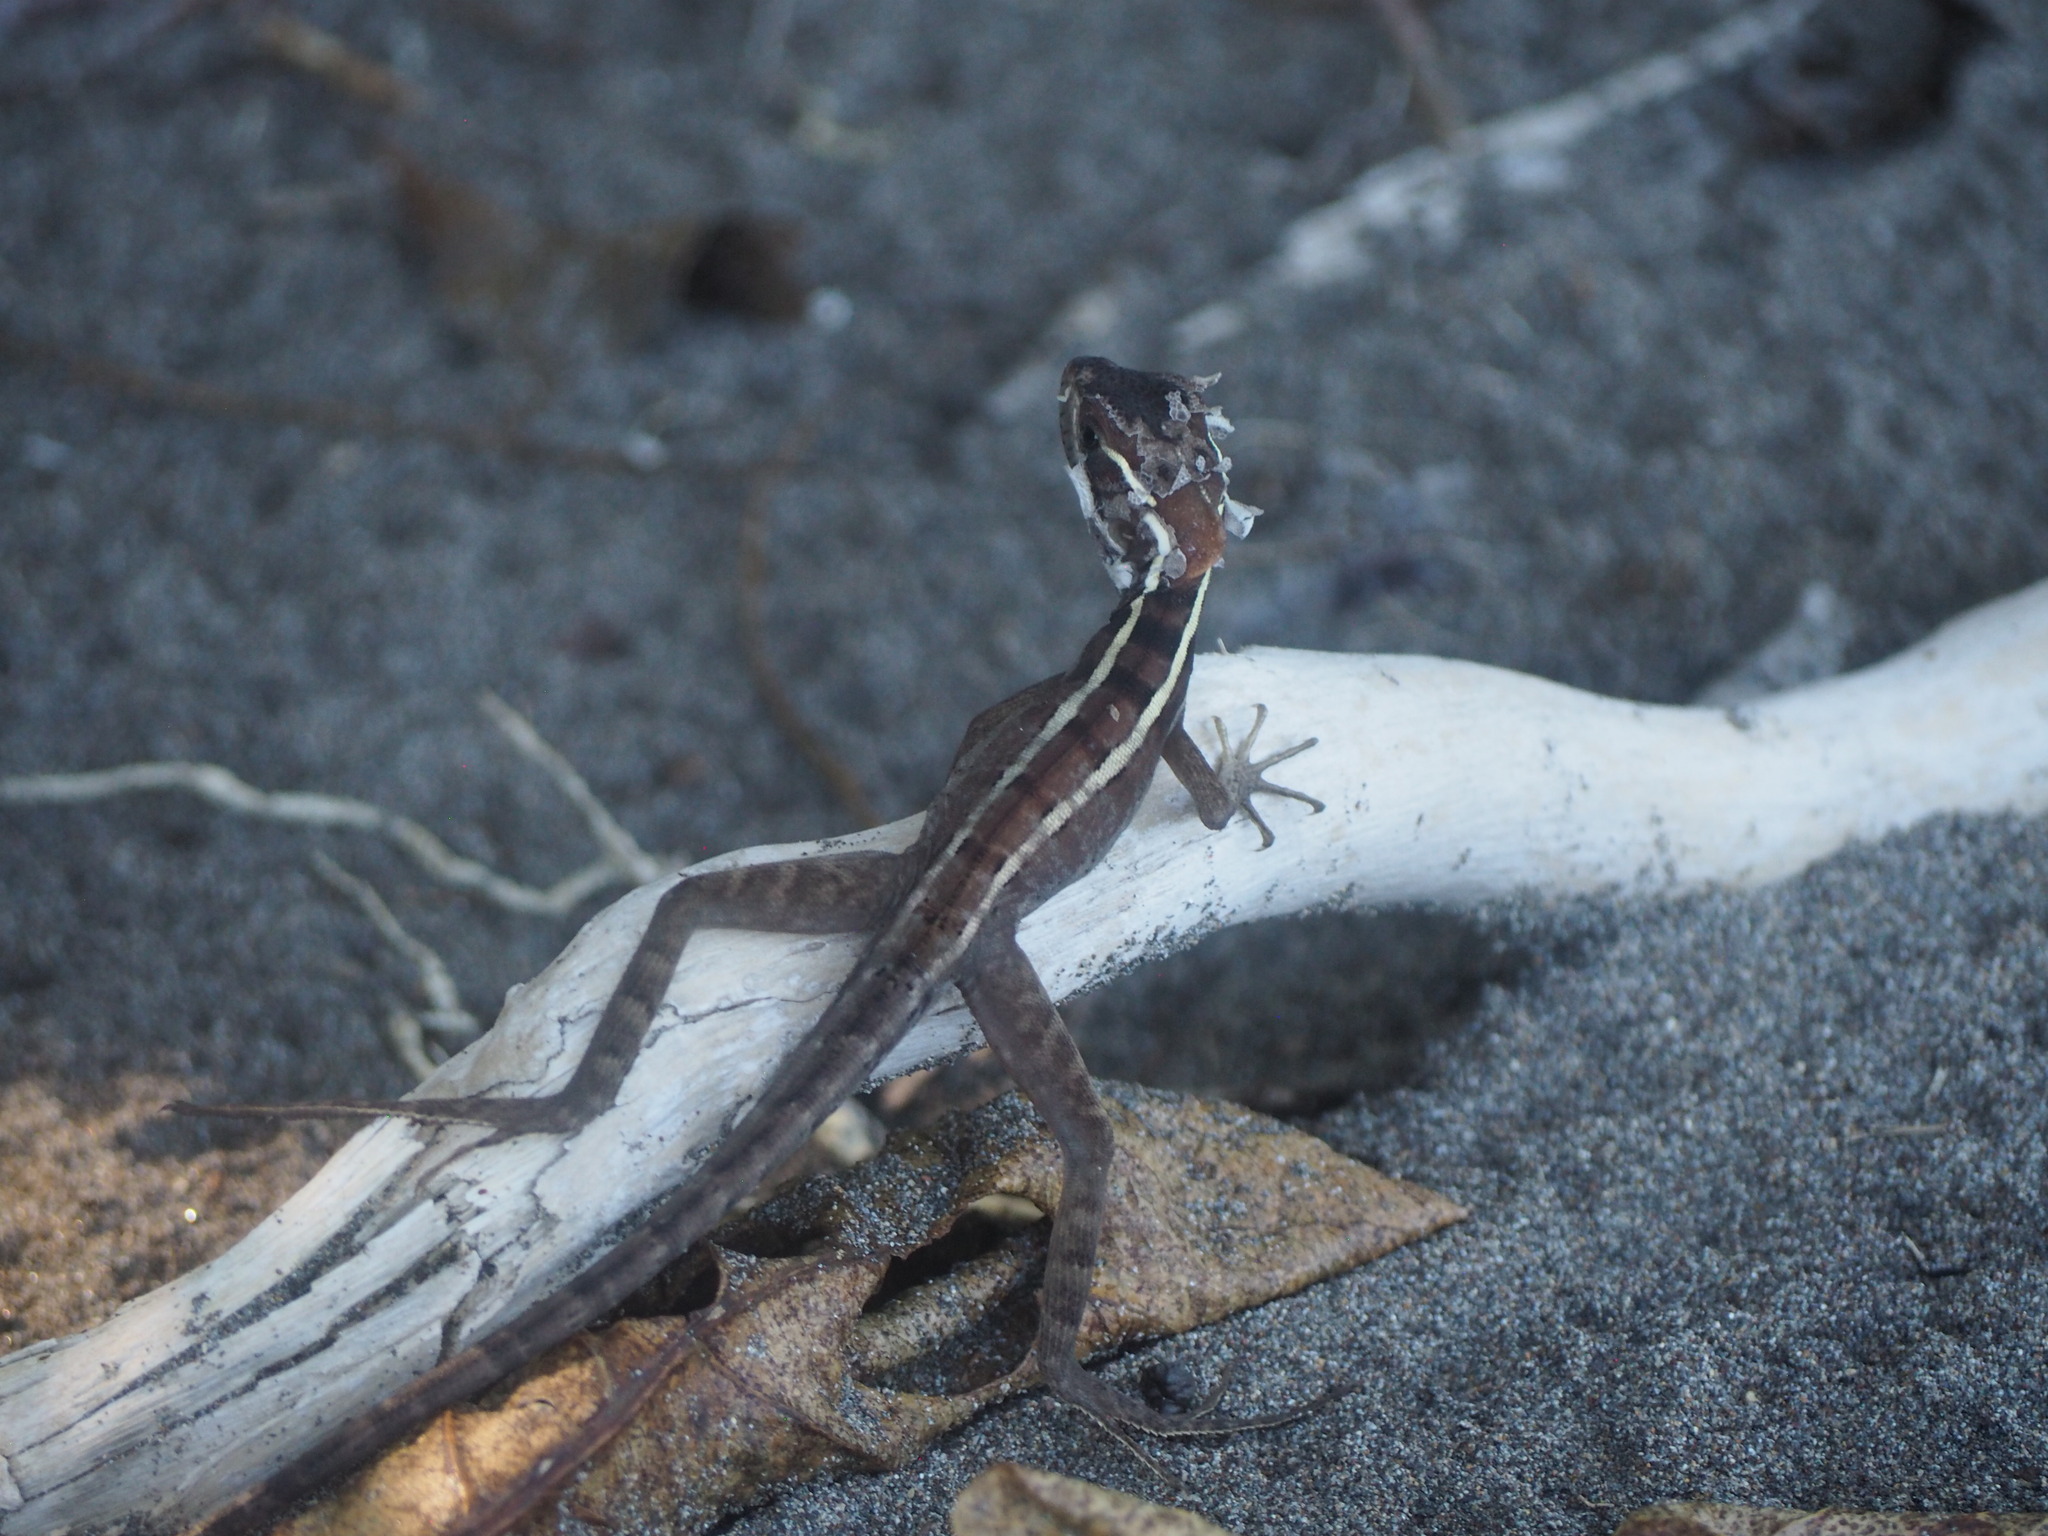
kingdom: Animalia
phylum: Chordata
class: Squamata
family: Corytophanidae
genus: Basiliscus
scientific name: Basiliscus vittatus
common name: Brown basilisk
